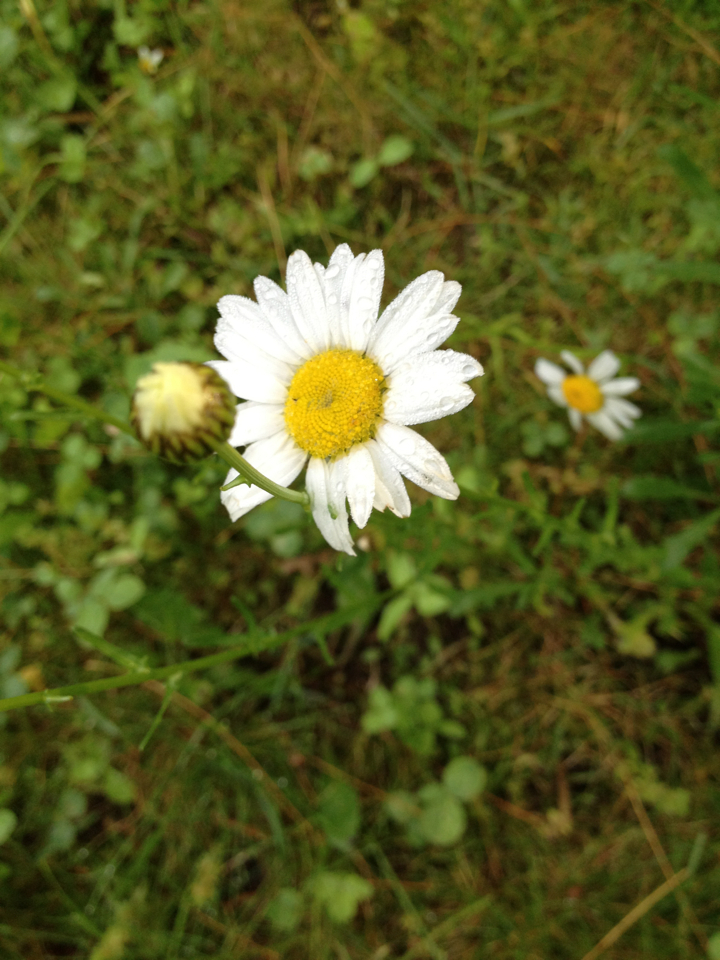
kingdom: Plantae
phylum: Tracheophyta
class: Magnoliopsida
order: Asterales
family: Asteraceae
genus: Leucanthemum
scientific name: Leucanthemum vulgare
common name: Oxeye daisy
